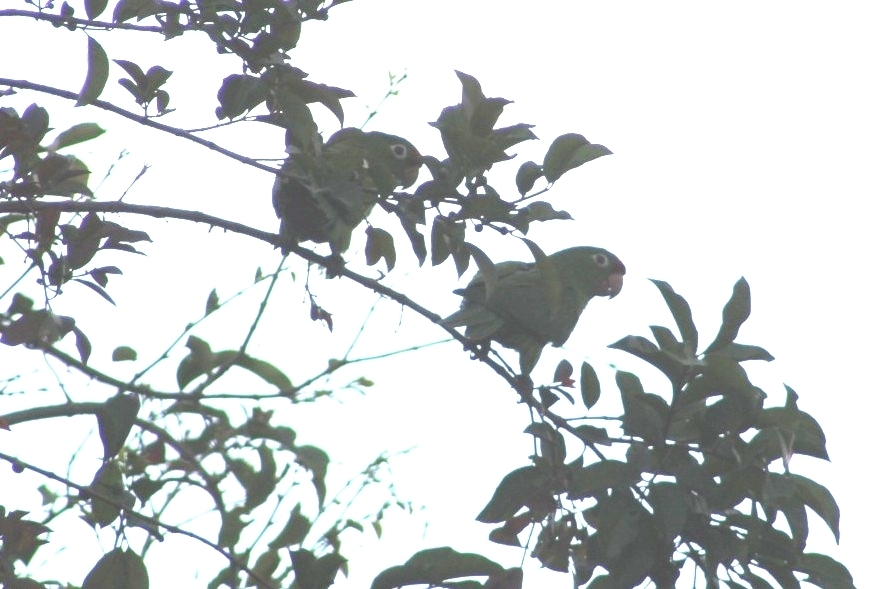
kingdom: Animalia
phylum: Chordata
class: Aves
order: Psittaciformes
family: Psittacidae
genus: Amazona
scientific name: Amazona autumnalis
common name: Red-lored amazon
